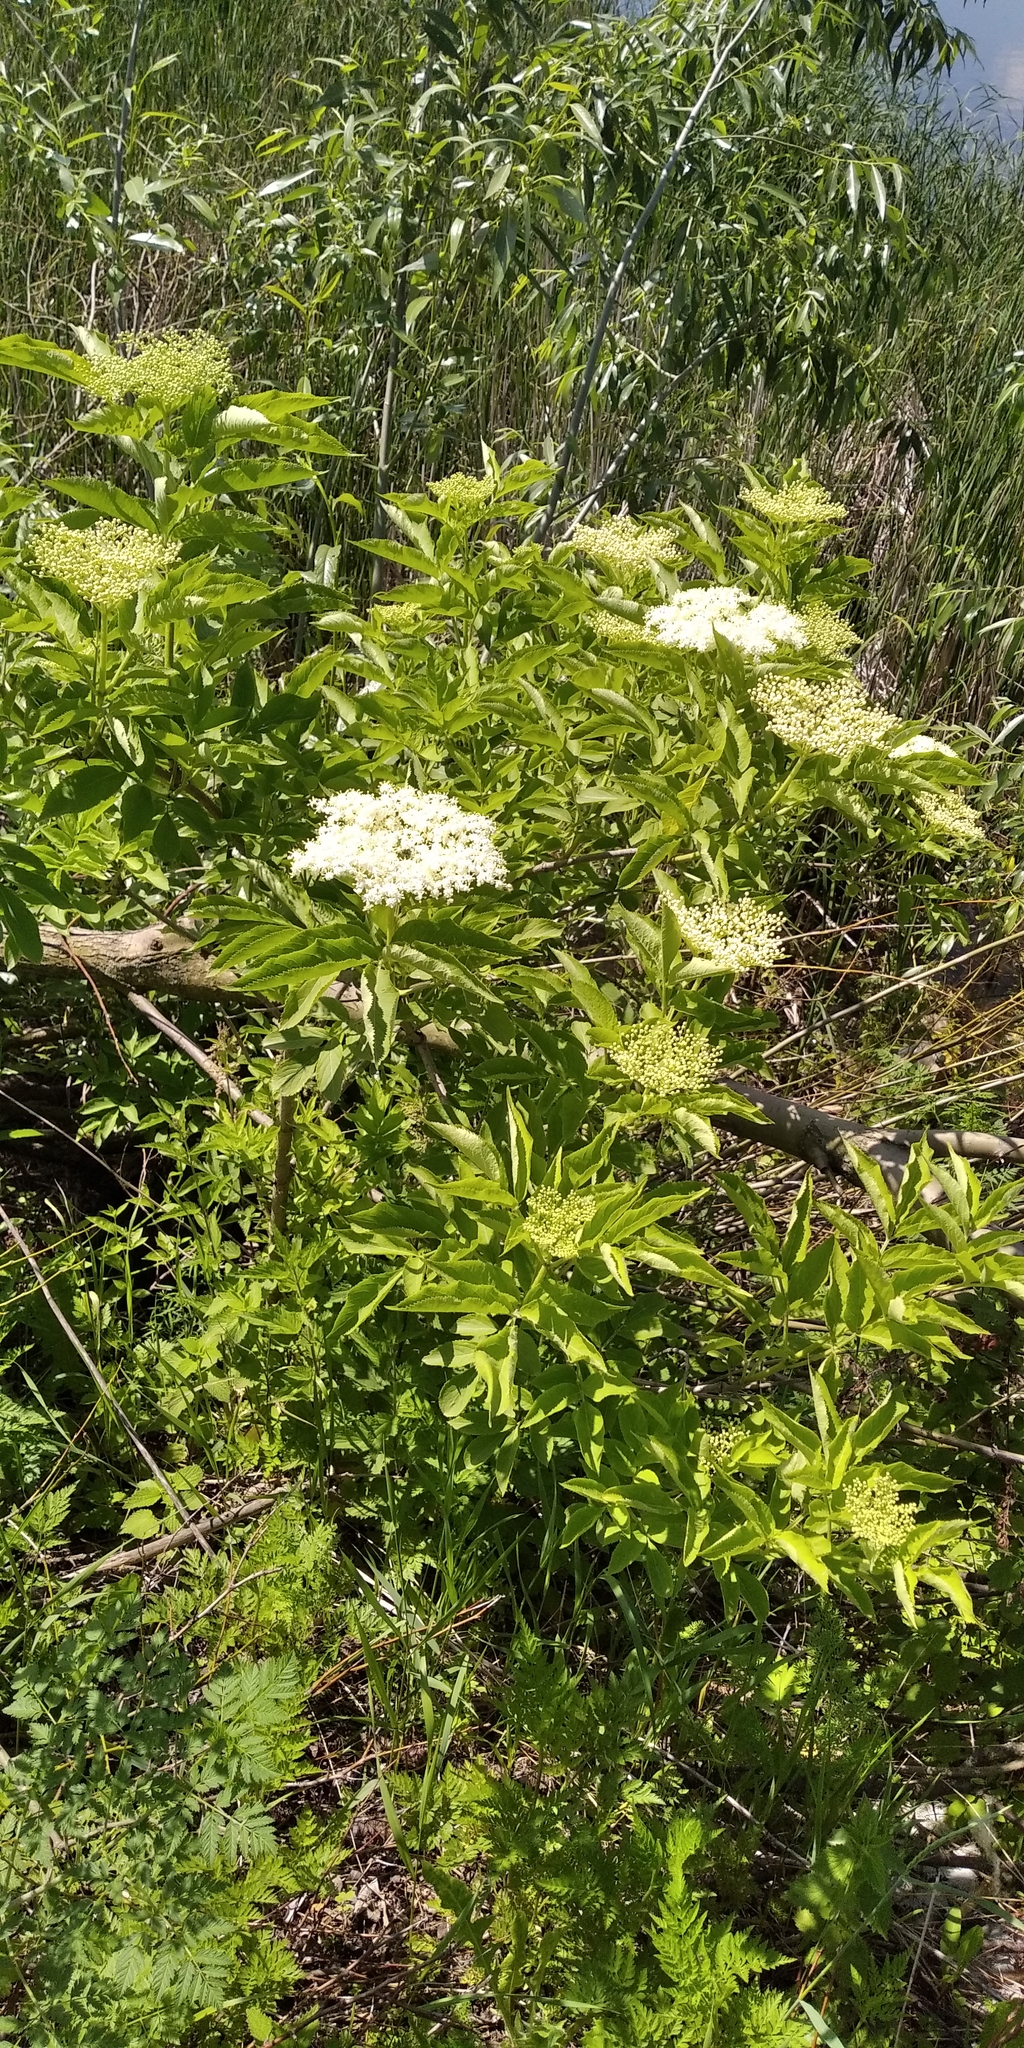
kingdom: Plantae
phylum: Tracheophyta
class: Magnoliopsida
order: Dipsacales
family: Viburnaceae
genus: Sambucus
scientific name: Sambucus nigra
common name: Elder
